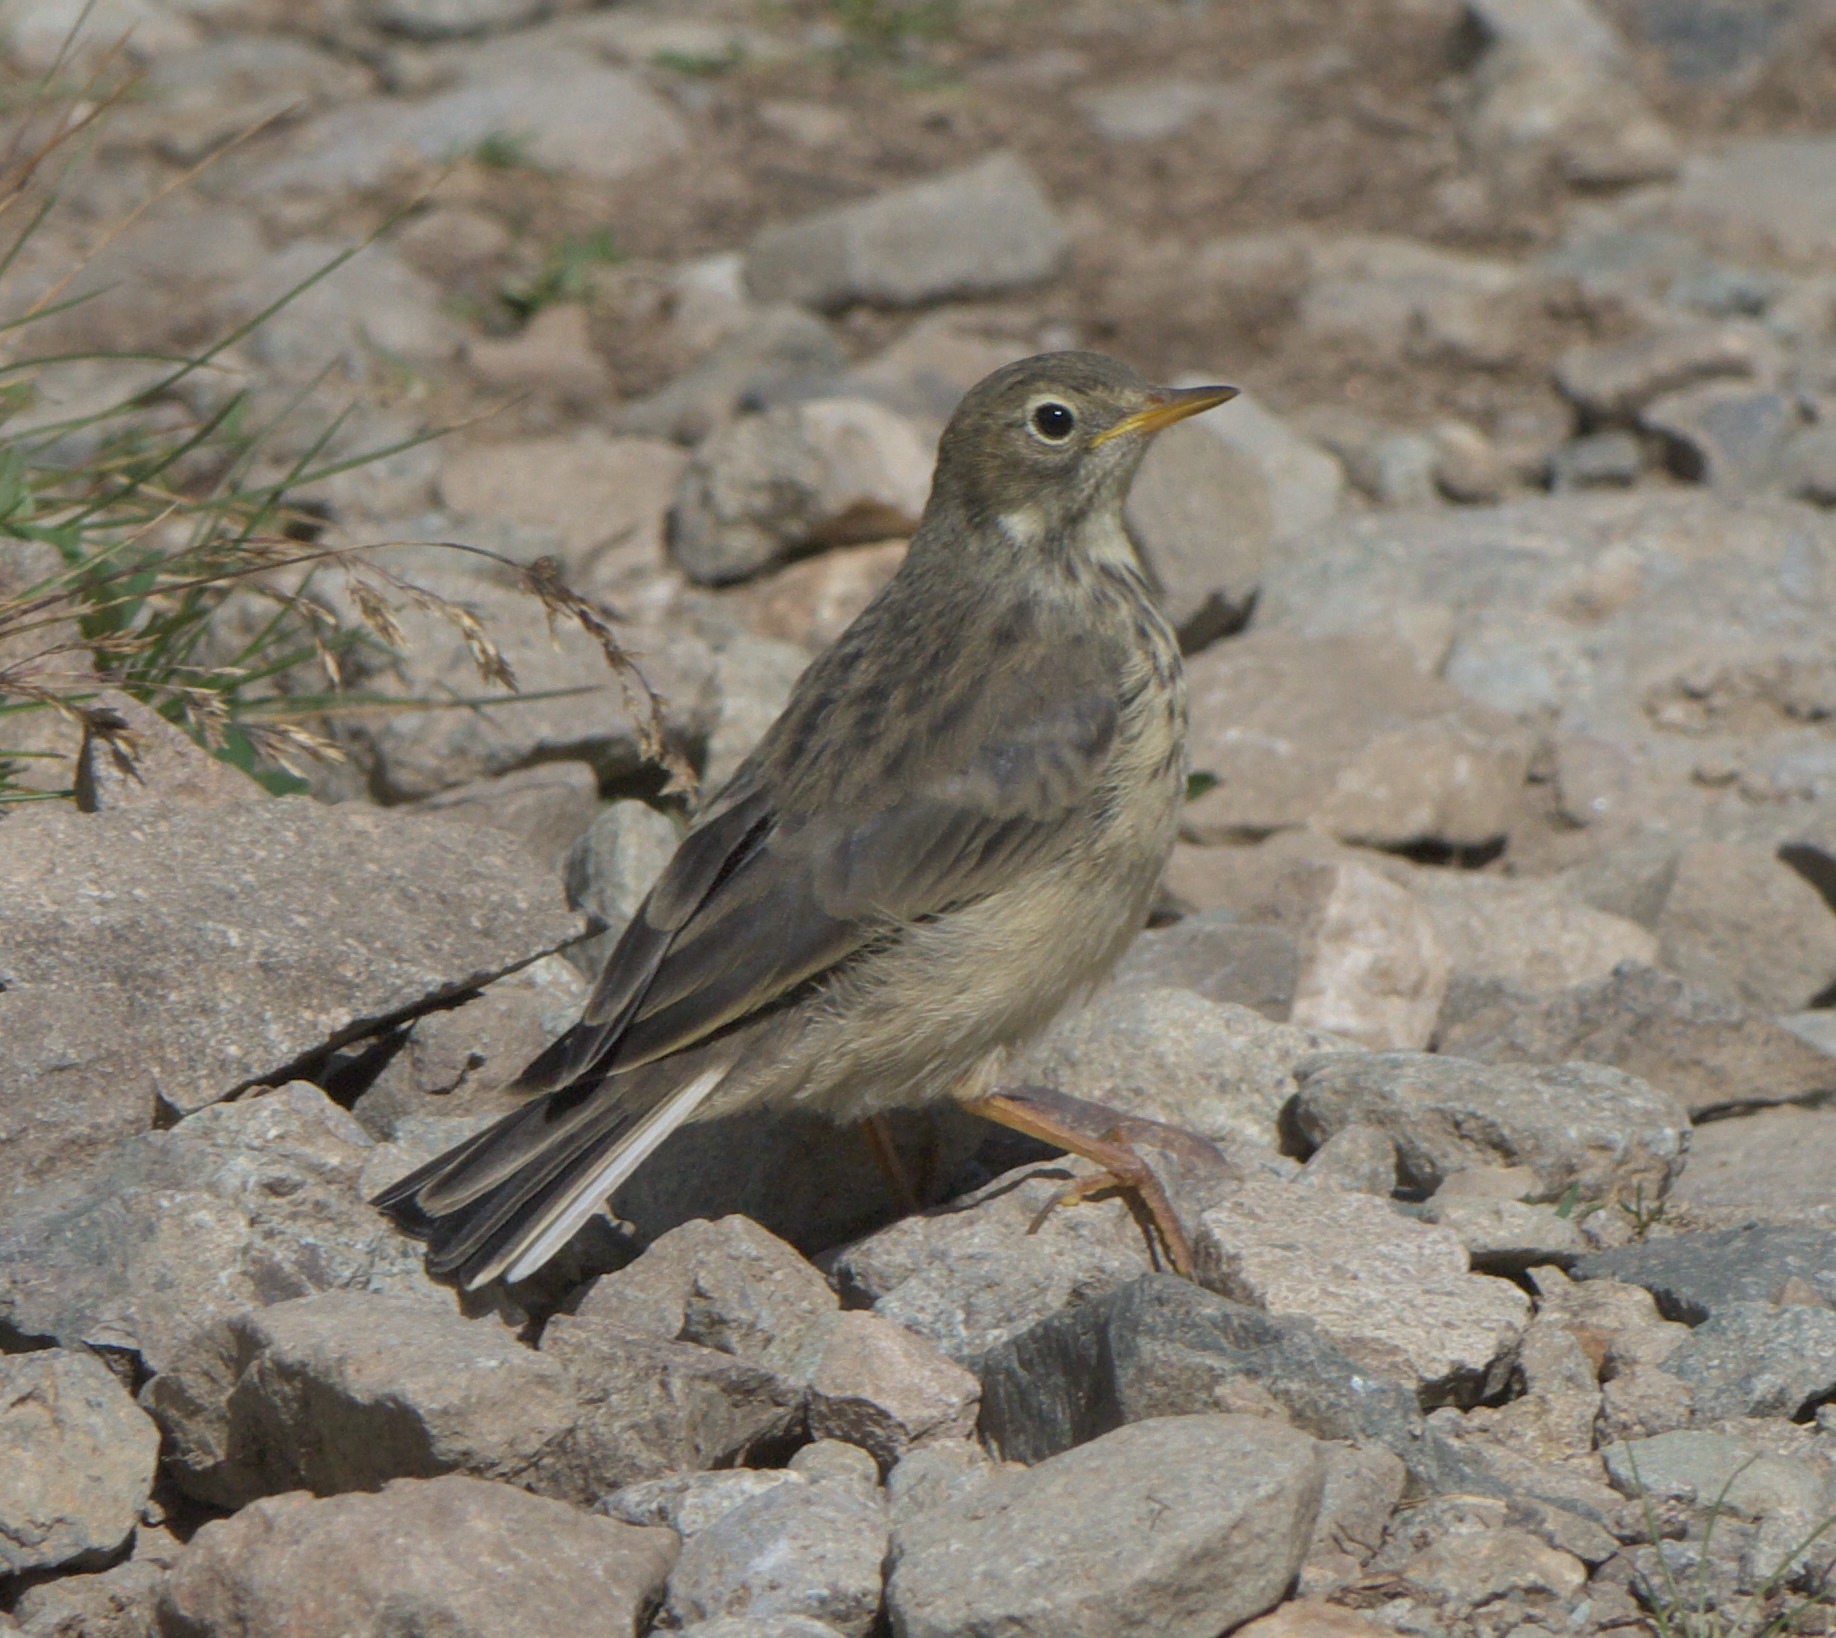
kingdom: Animalia
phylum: Chordata
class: Aves
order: Passeriformes
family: Motacillidae
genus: Anthus
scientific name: Anthus rubescens
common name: Buff-bellied pipit
